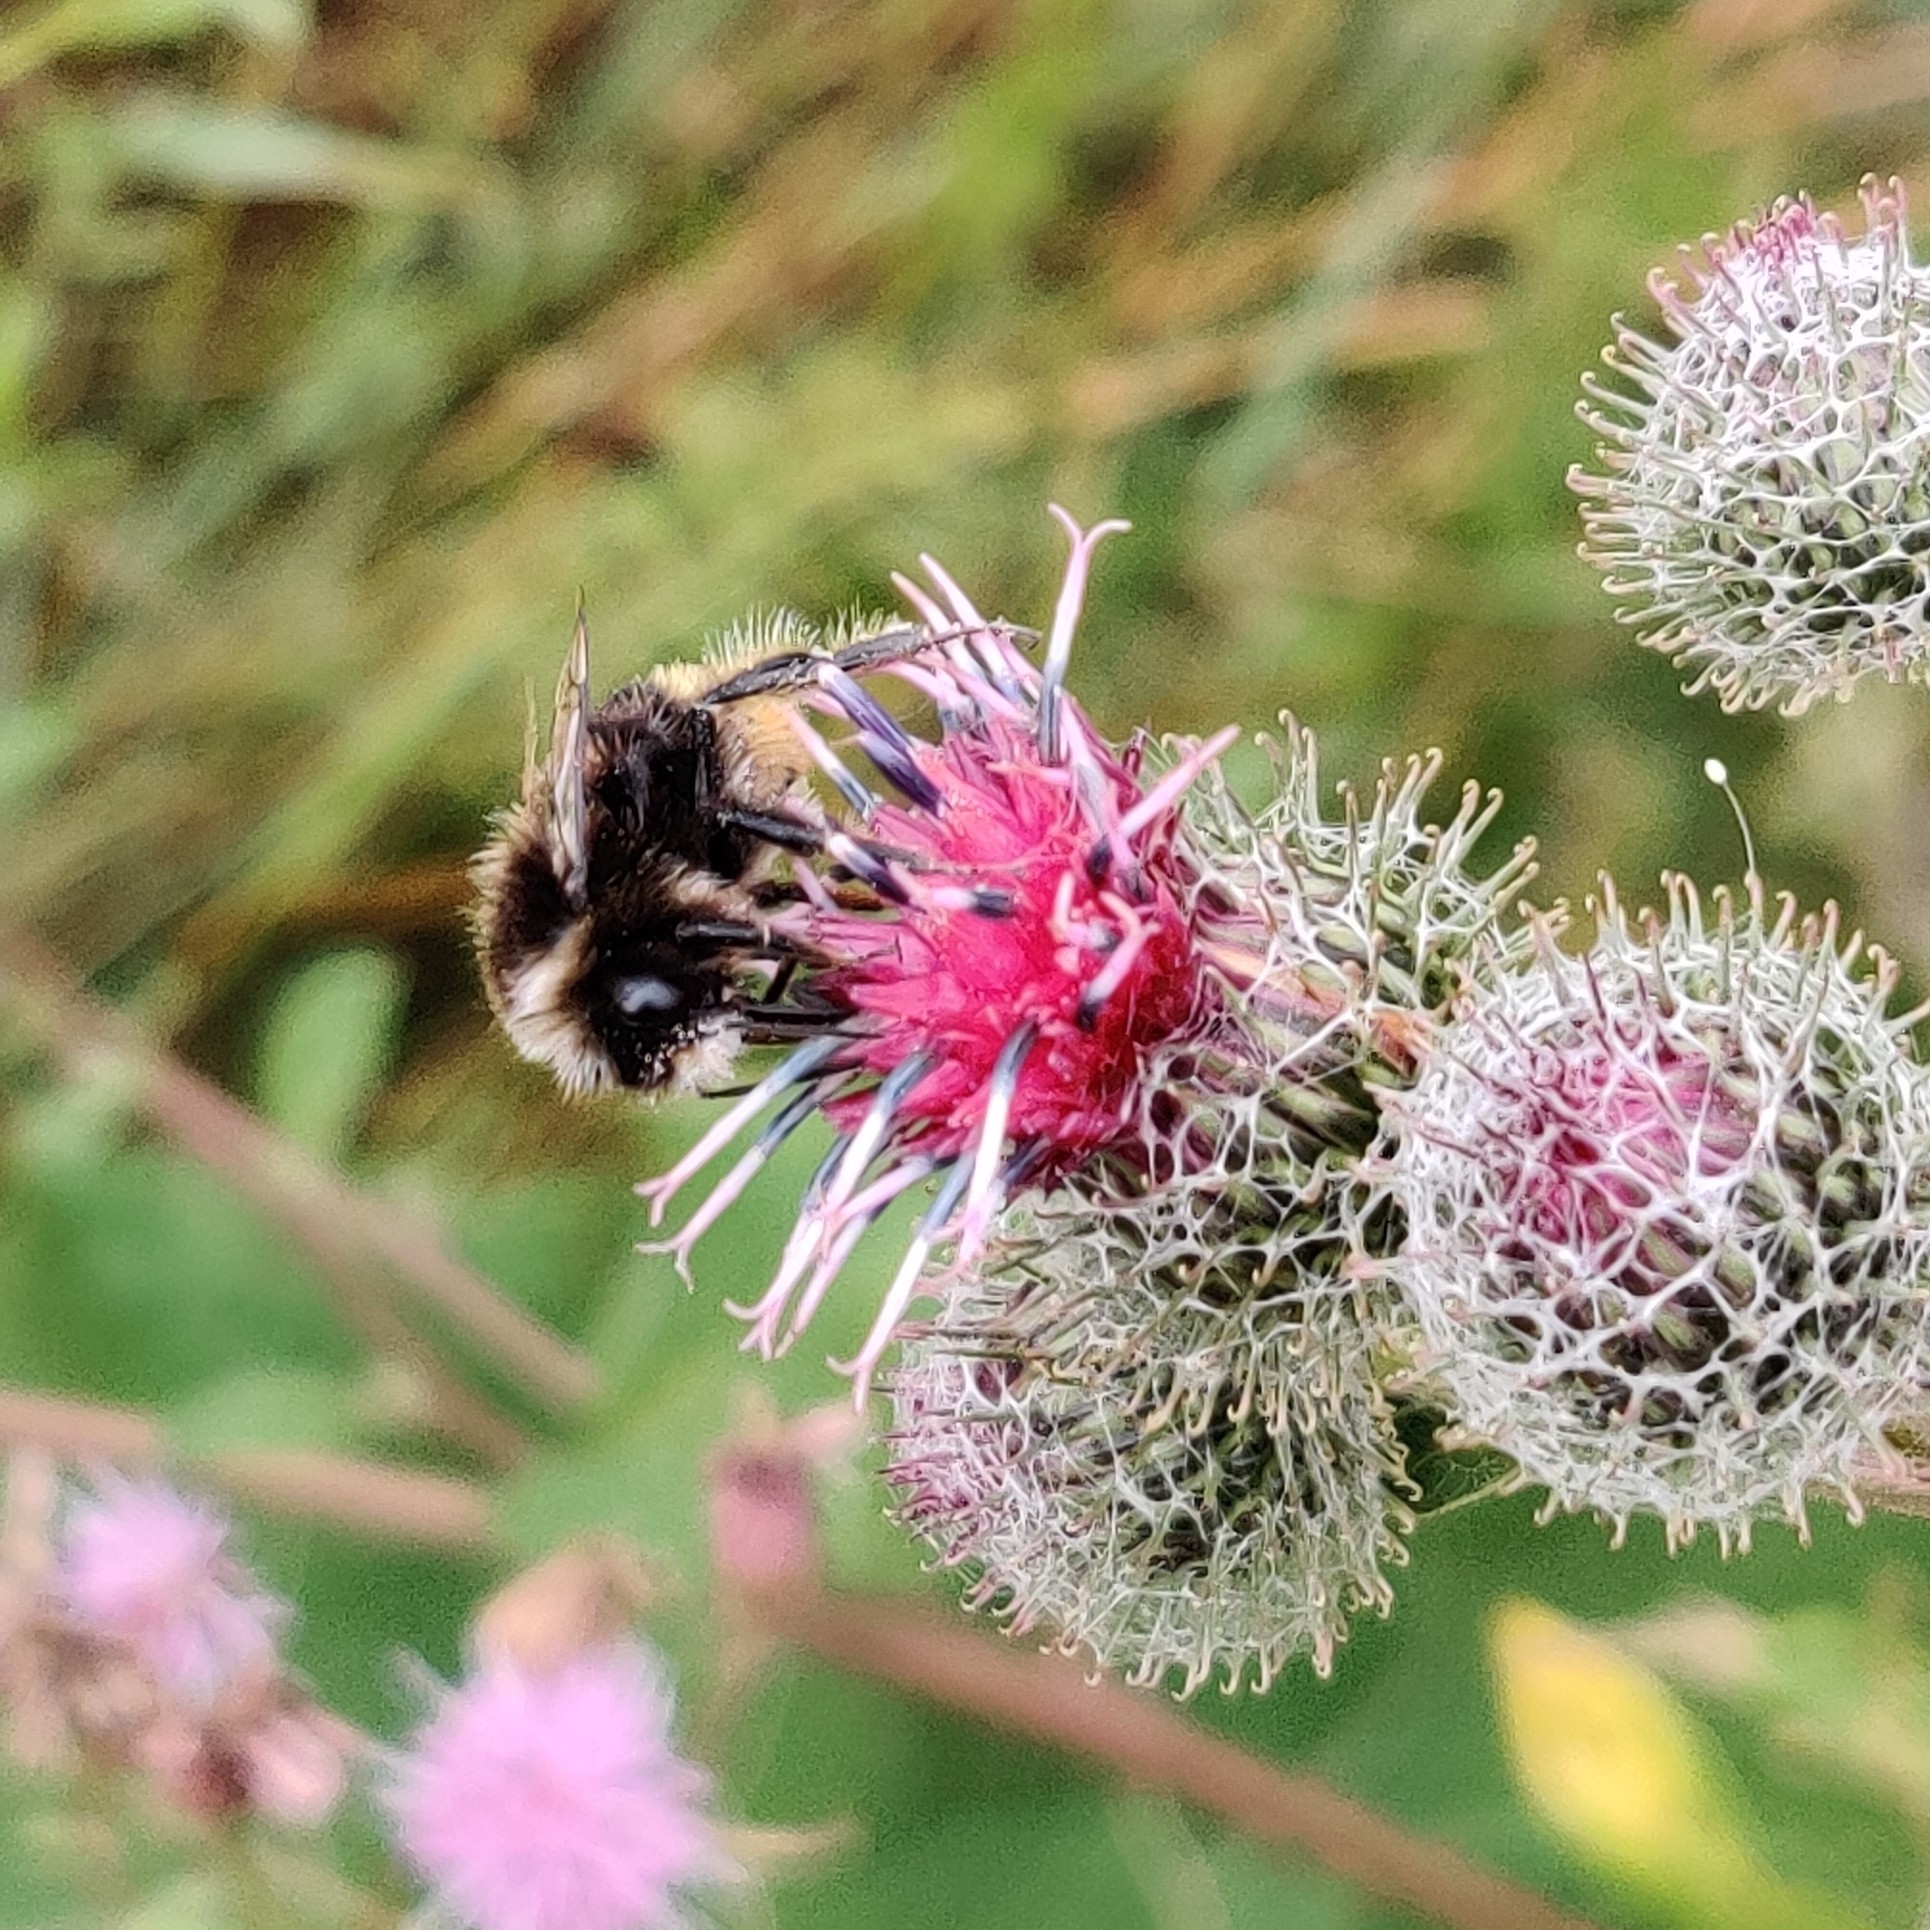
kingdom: Animalia
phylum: Arthropoda
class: Insecta
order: Hymenoptera
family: Apidae
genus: Bombus
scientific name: Bombus lapidarius
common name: Large red-tailed humble-bee
